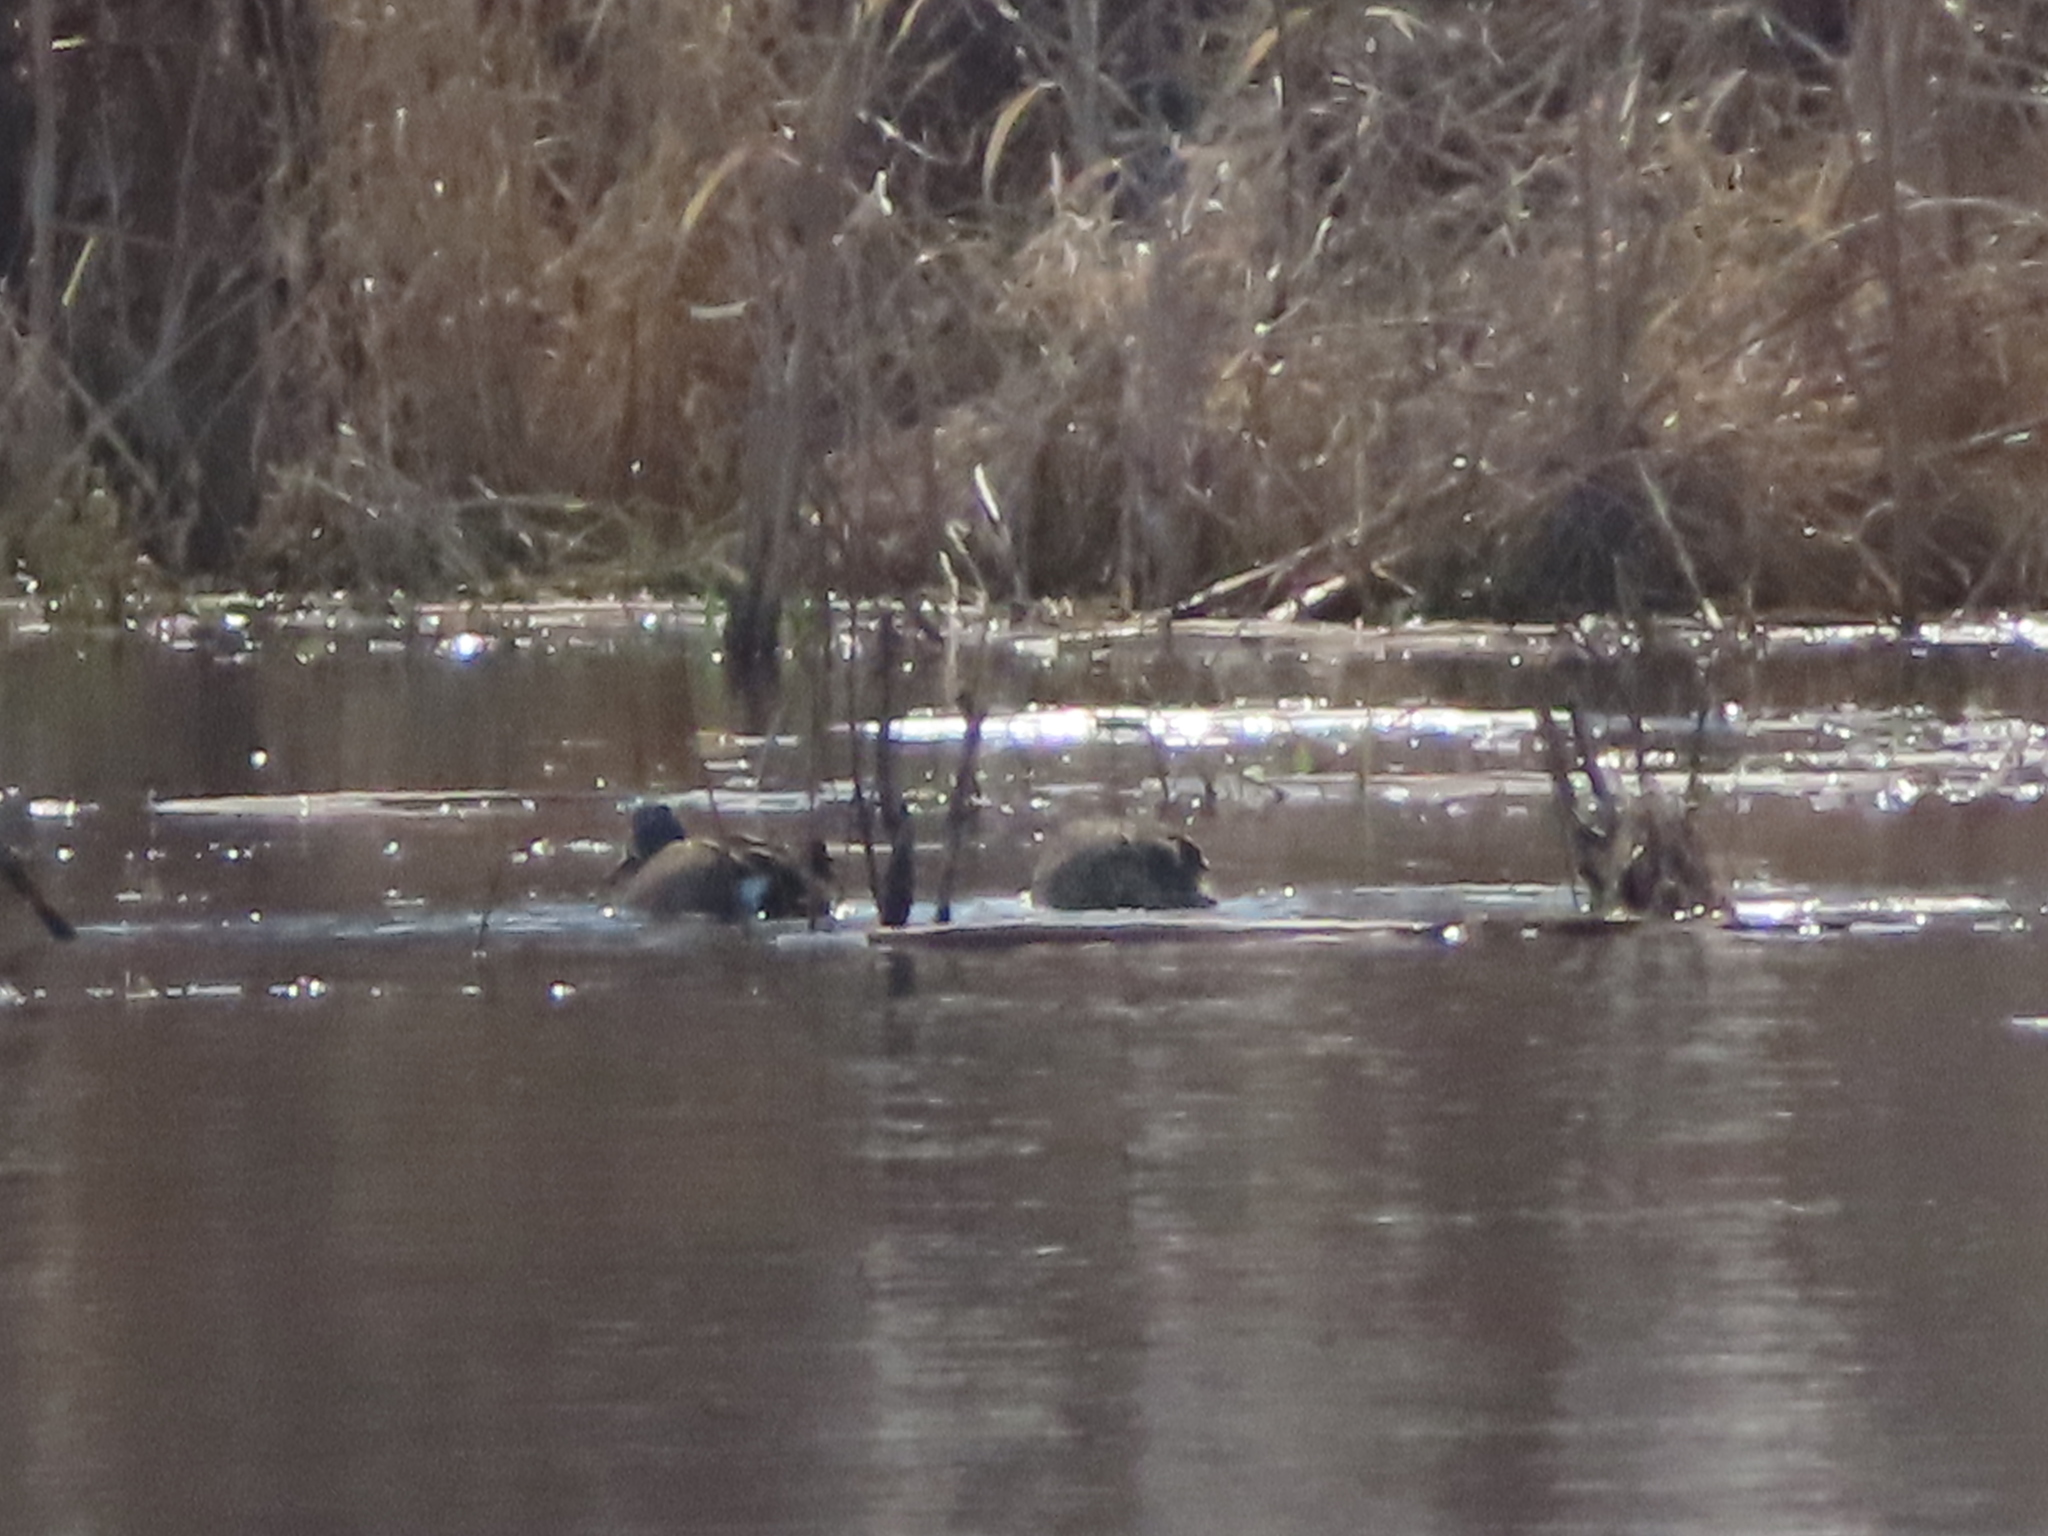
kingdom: Animalia
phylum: Chordata
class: Aves
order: Anseriformes
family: Anatidae
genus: Spatula
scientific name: Spatula discors
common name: Blue-winged teal
